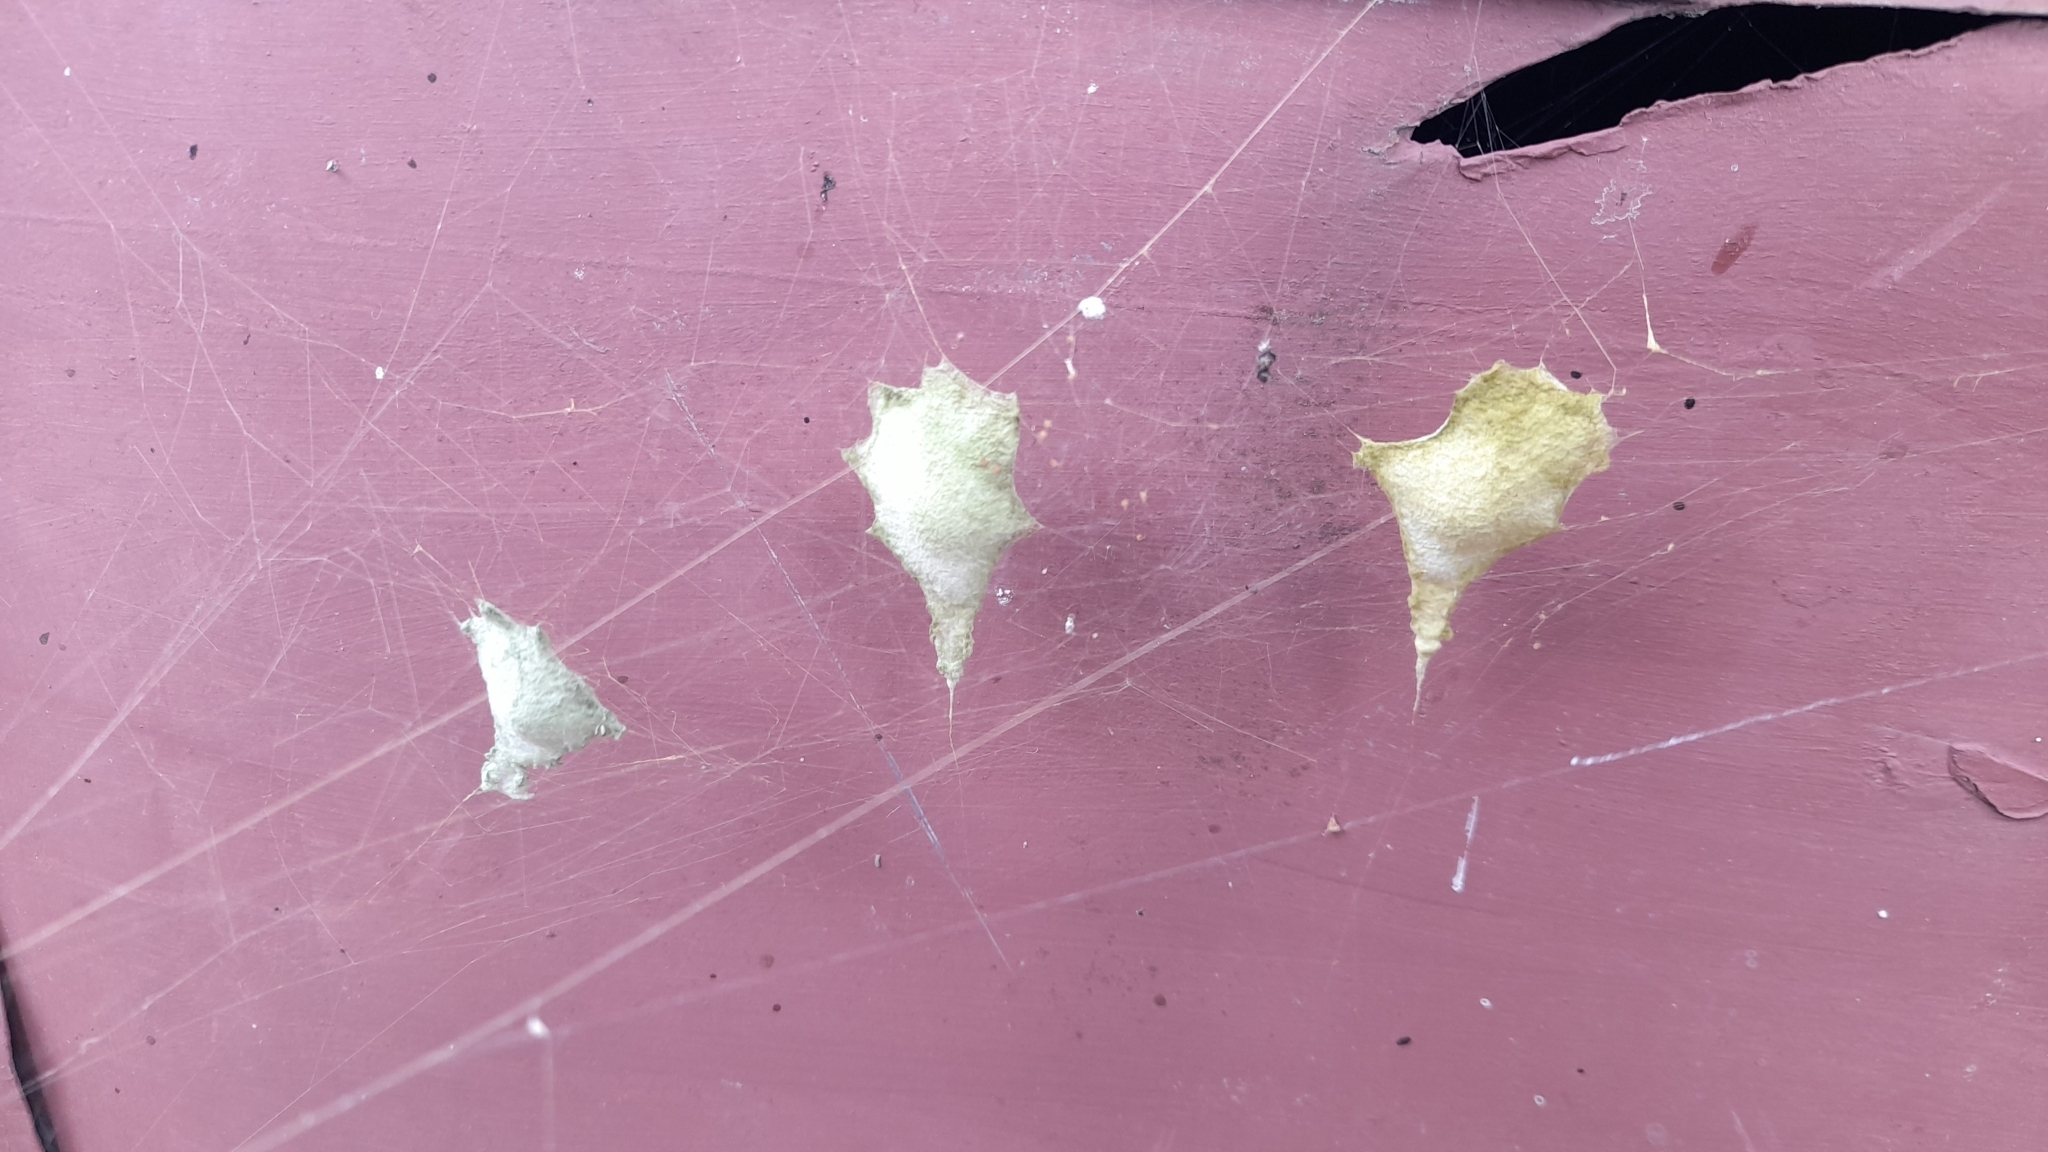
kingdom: Animalia
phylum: Arthropoda
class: Arachnida
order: Araneae
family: Araneidae
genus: Argiope
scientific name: Argiope argentata
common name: Orb weavers
